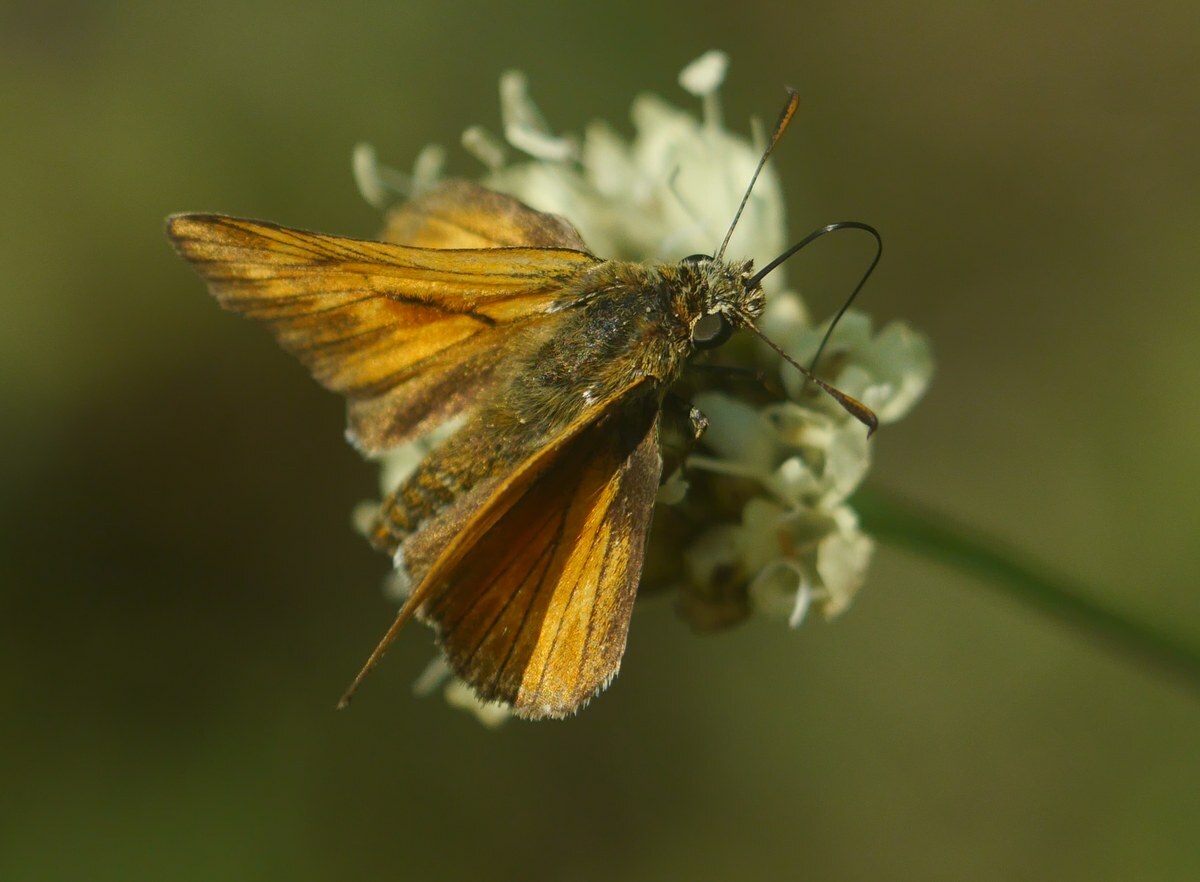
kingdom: Animalia
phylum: Arthropoda
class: Insecta
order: Lepidoptera
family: Hesperiidae
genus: Ochlodes
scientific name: Ochlodes venata
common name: Large skipper
